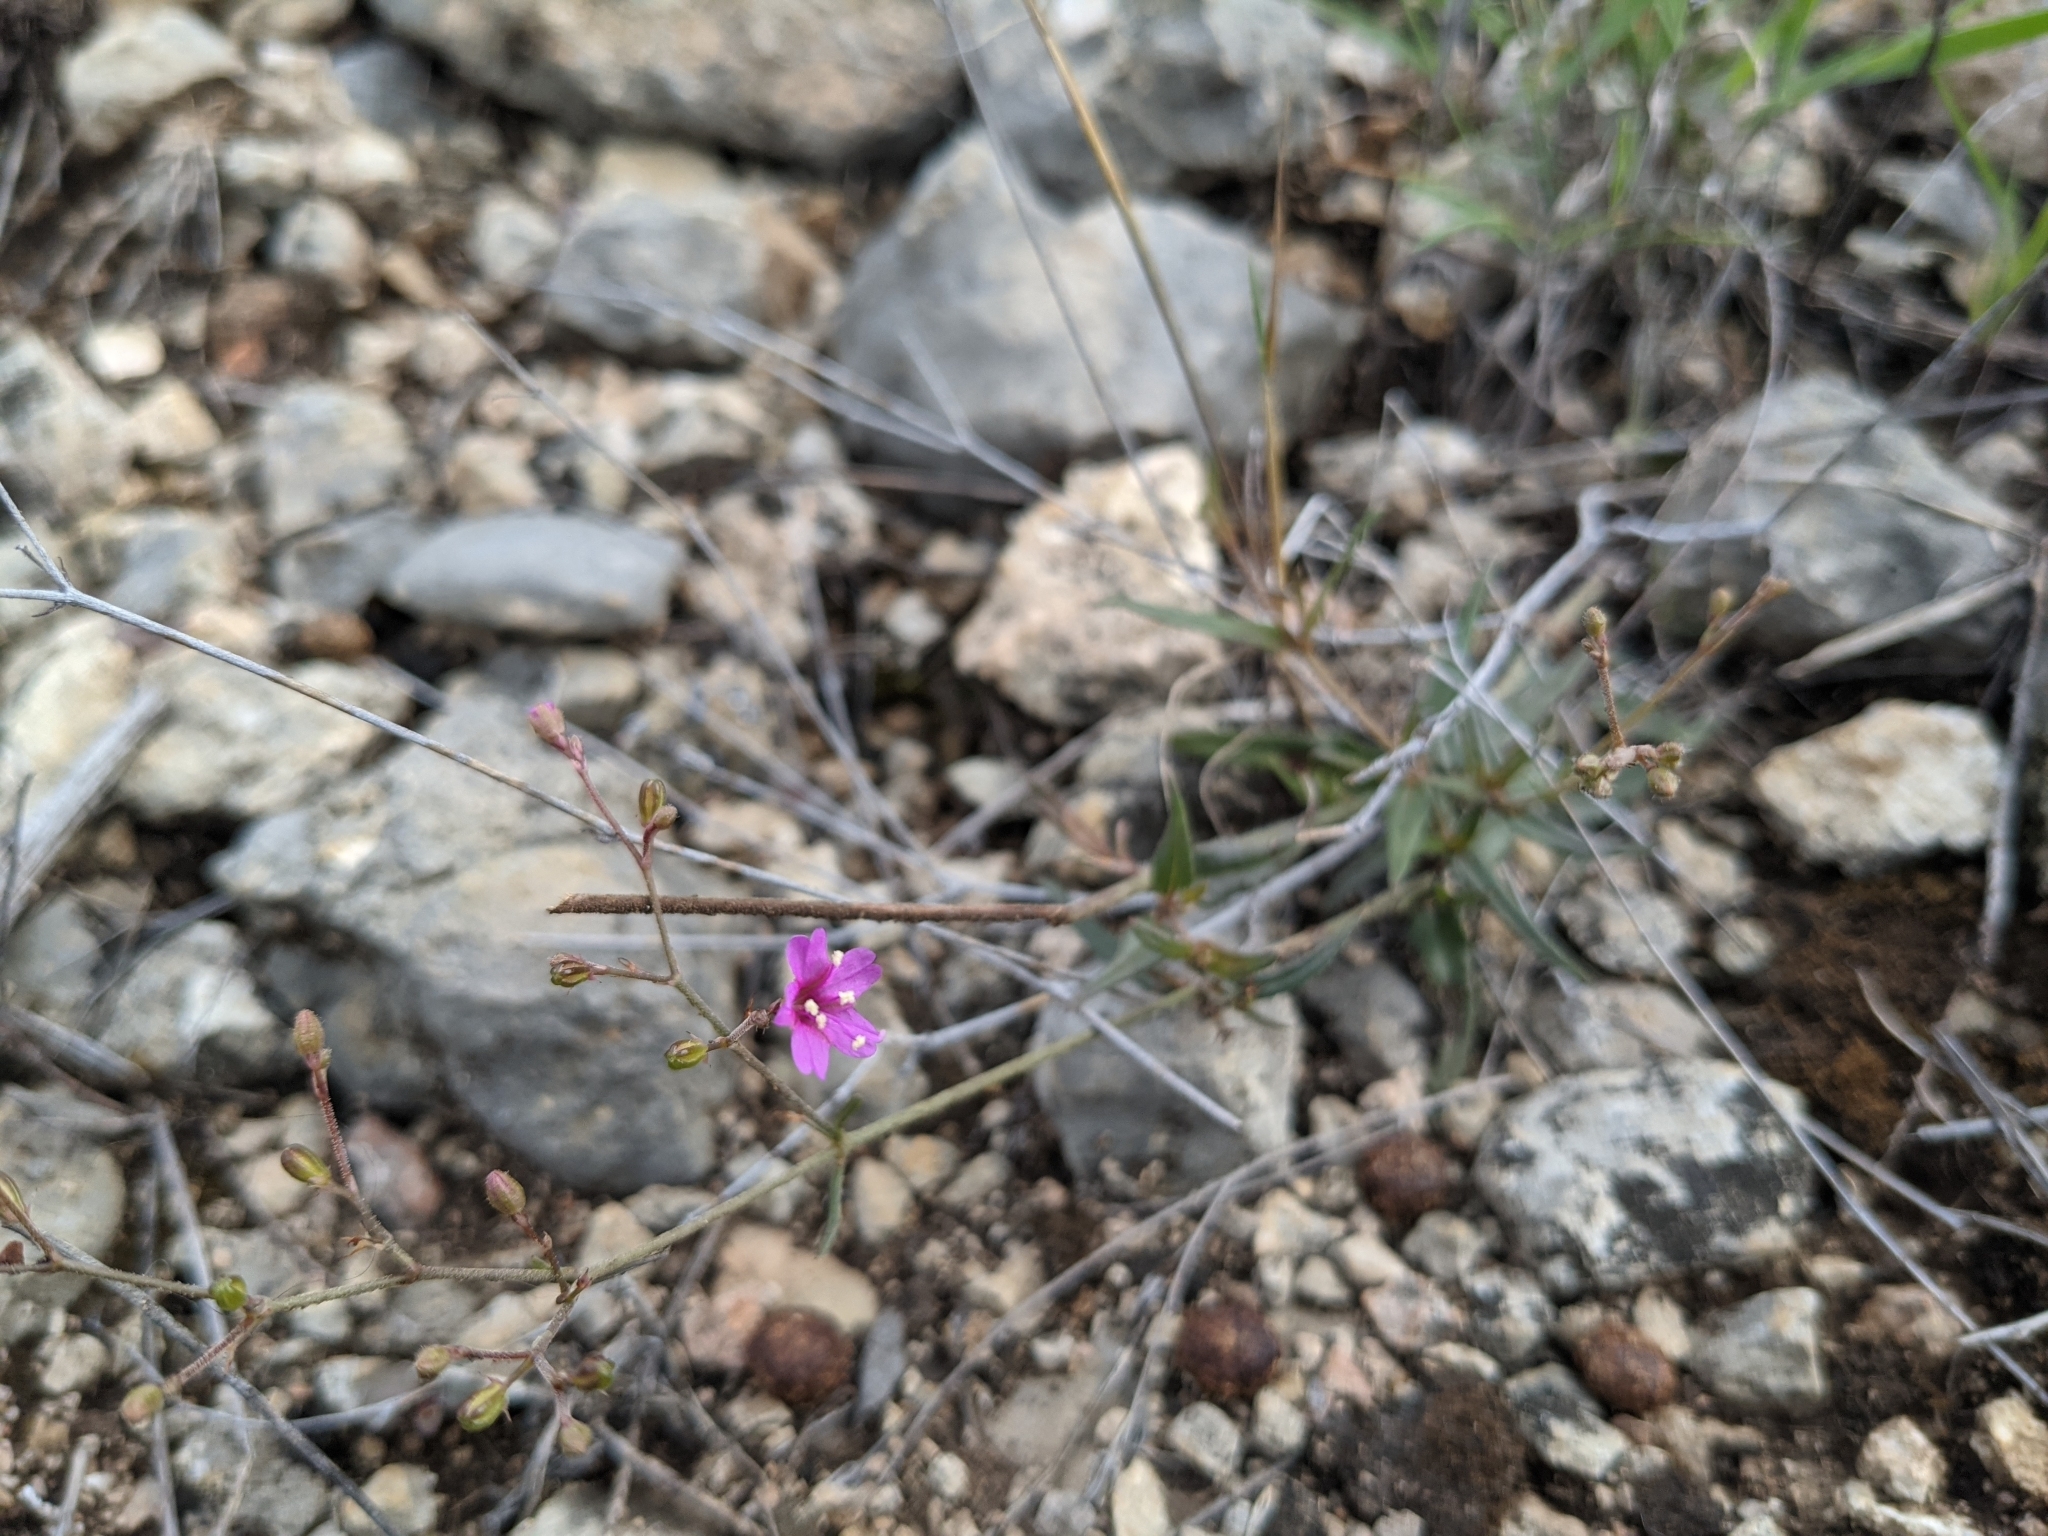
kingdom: Plantae
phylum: Tracheophyta
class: Magnoliopsida
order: Caryophyllales
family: Nyctaginaceae
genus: Boerhavia
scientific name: Boerhavia linearifolia
